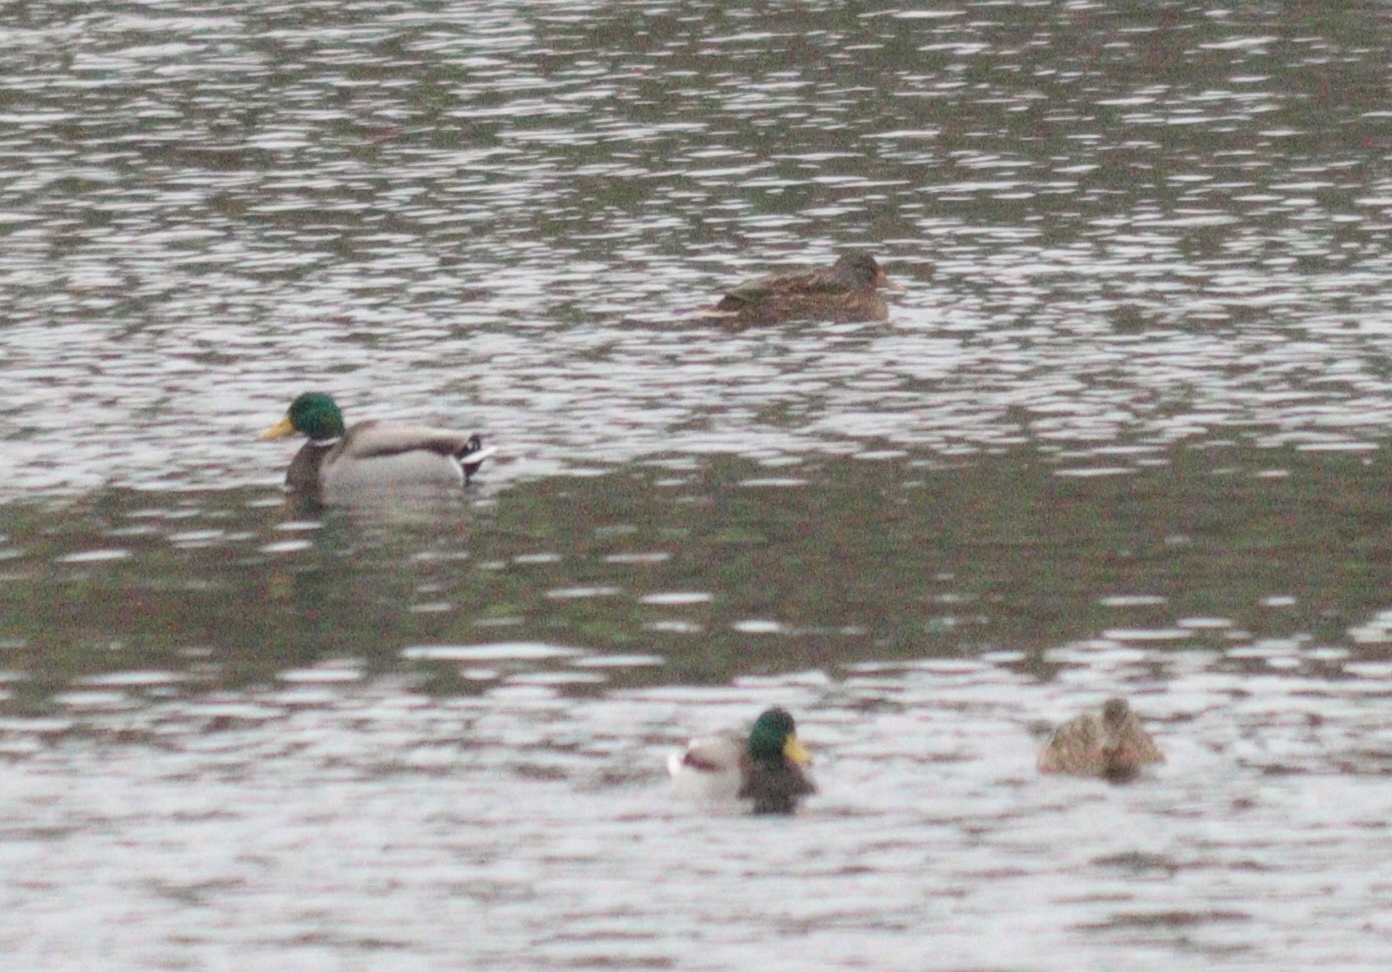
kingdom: Animalia
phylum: Chordata
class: Aves
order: Anseriformes
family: Anatidae
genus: Anas
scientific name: Anas platyrhynchos
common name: Mallard
